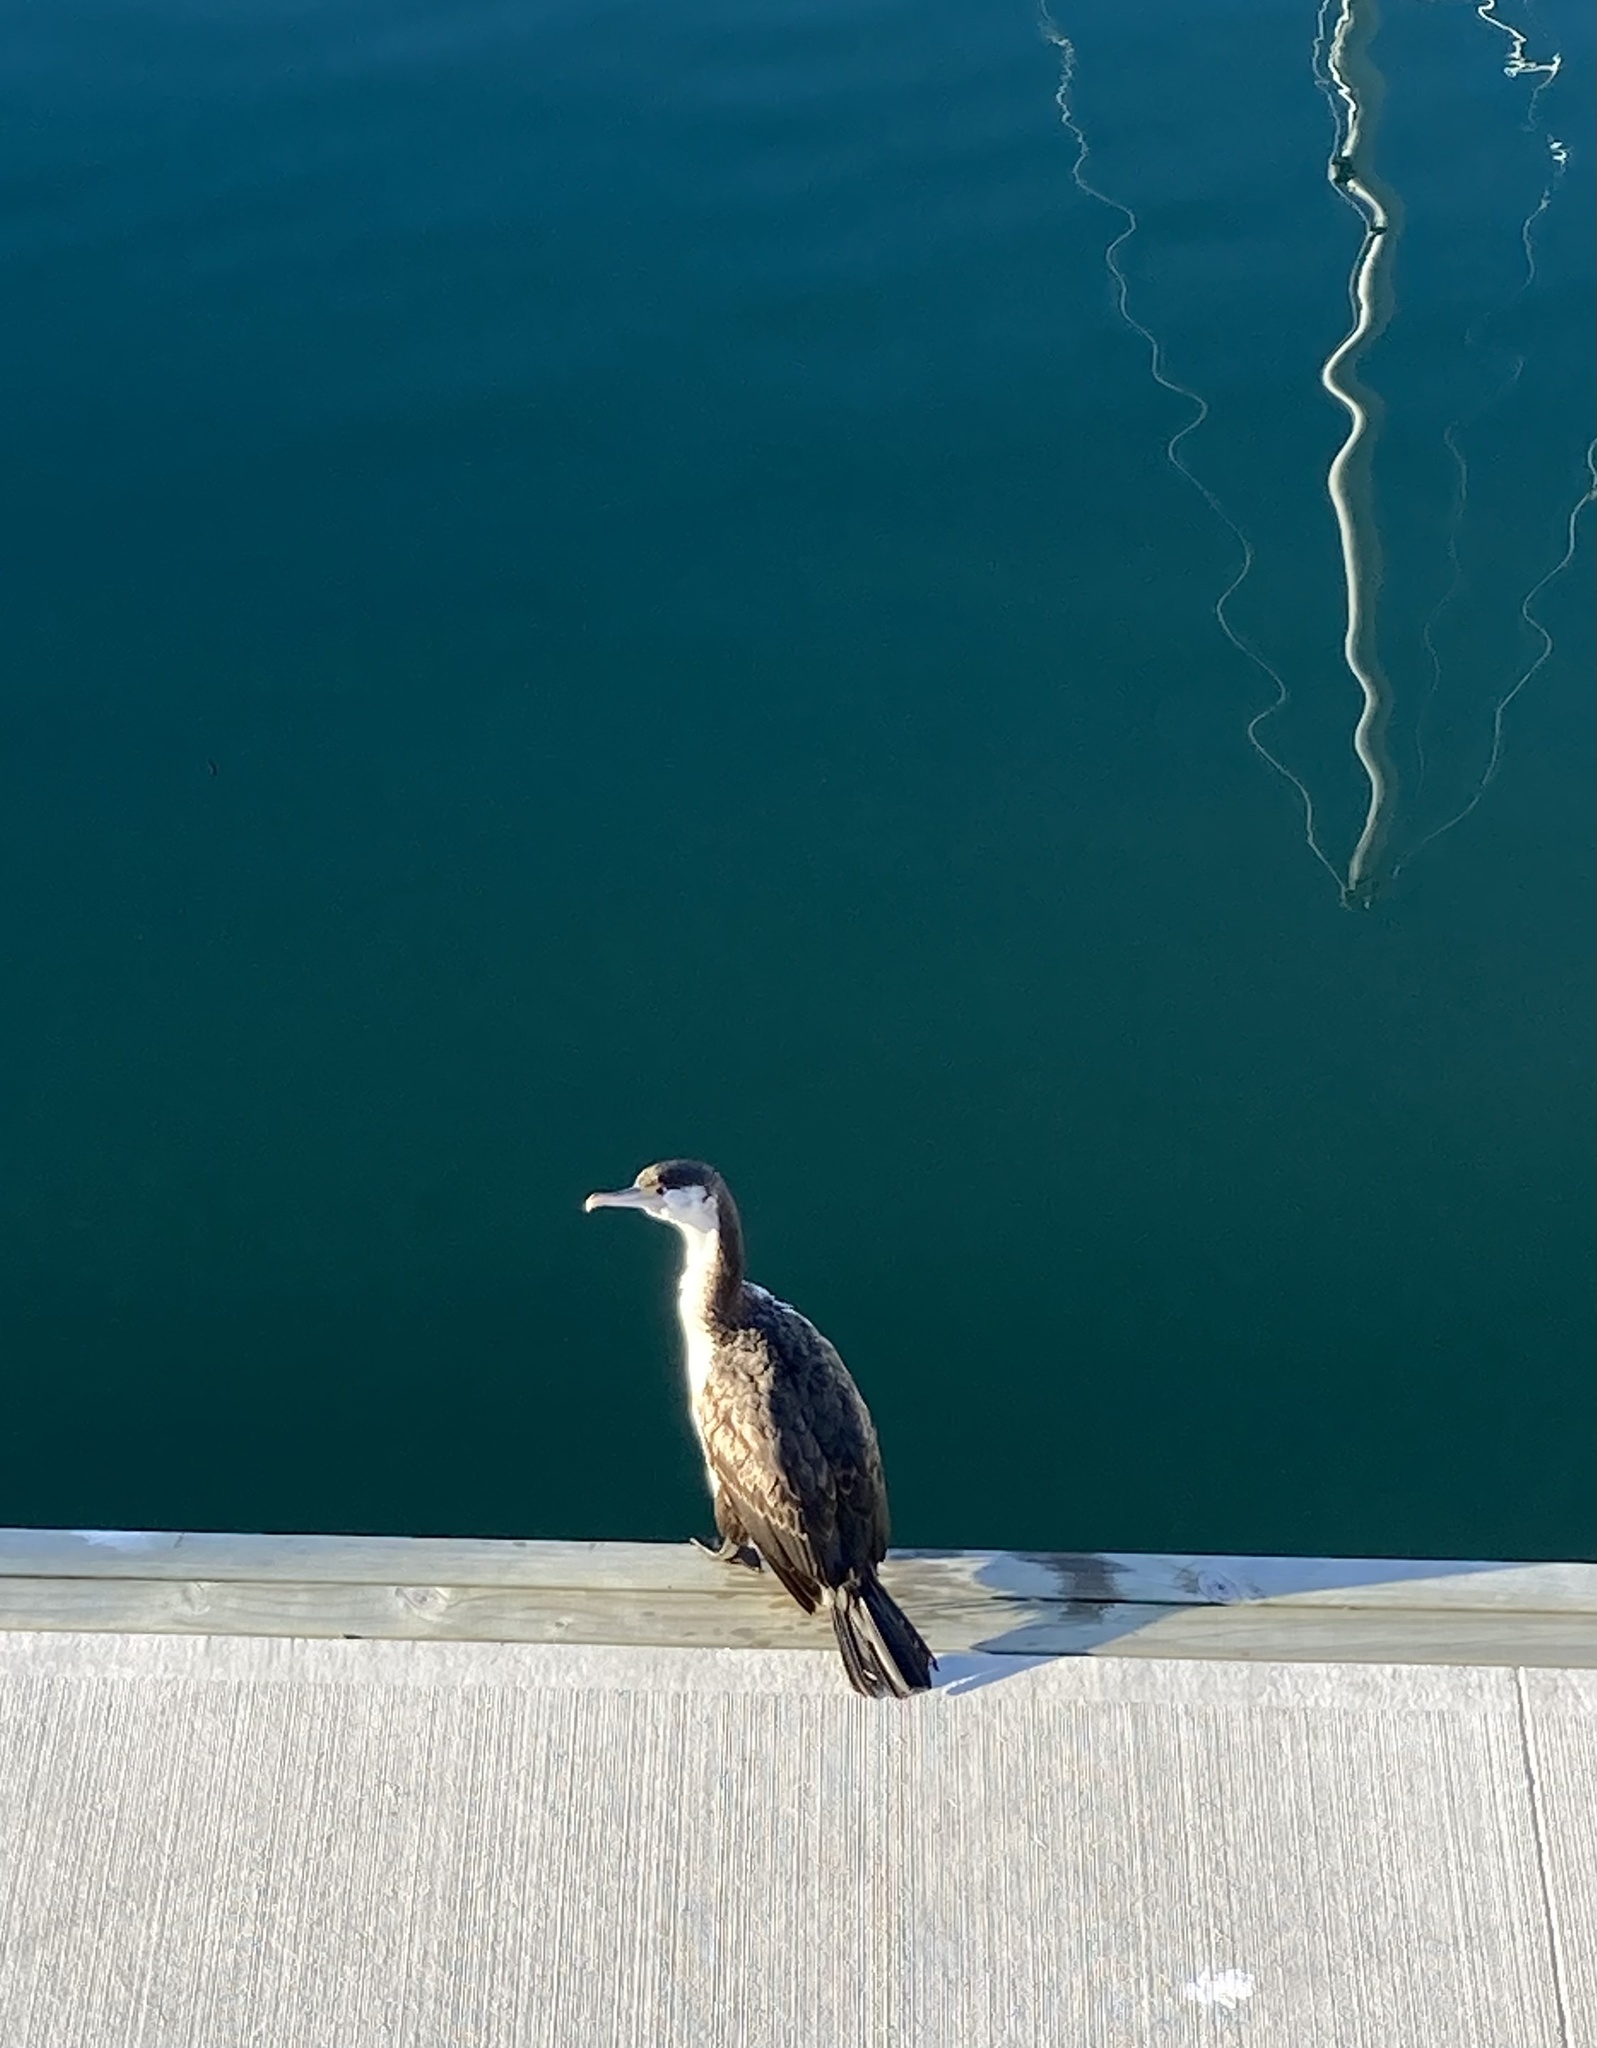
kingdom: Animalia
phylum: Chordata
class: Aves
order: Suliformes
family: Phalacrocoracidae
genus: Phalacrocorax
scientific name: Phalacrocorax varius
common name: Pied cormorant
